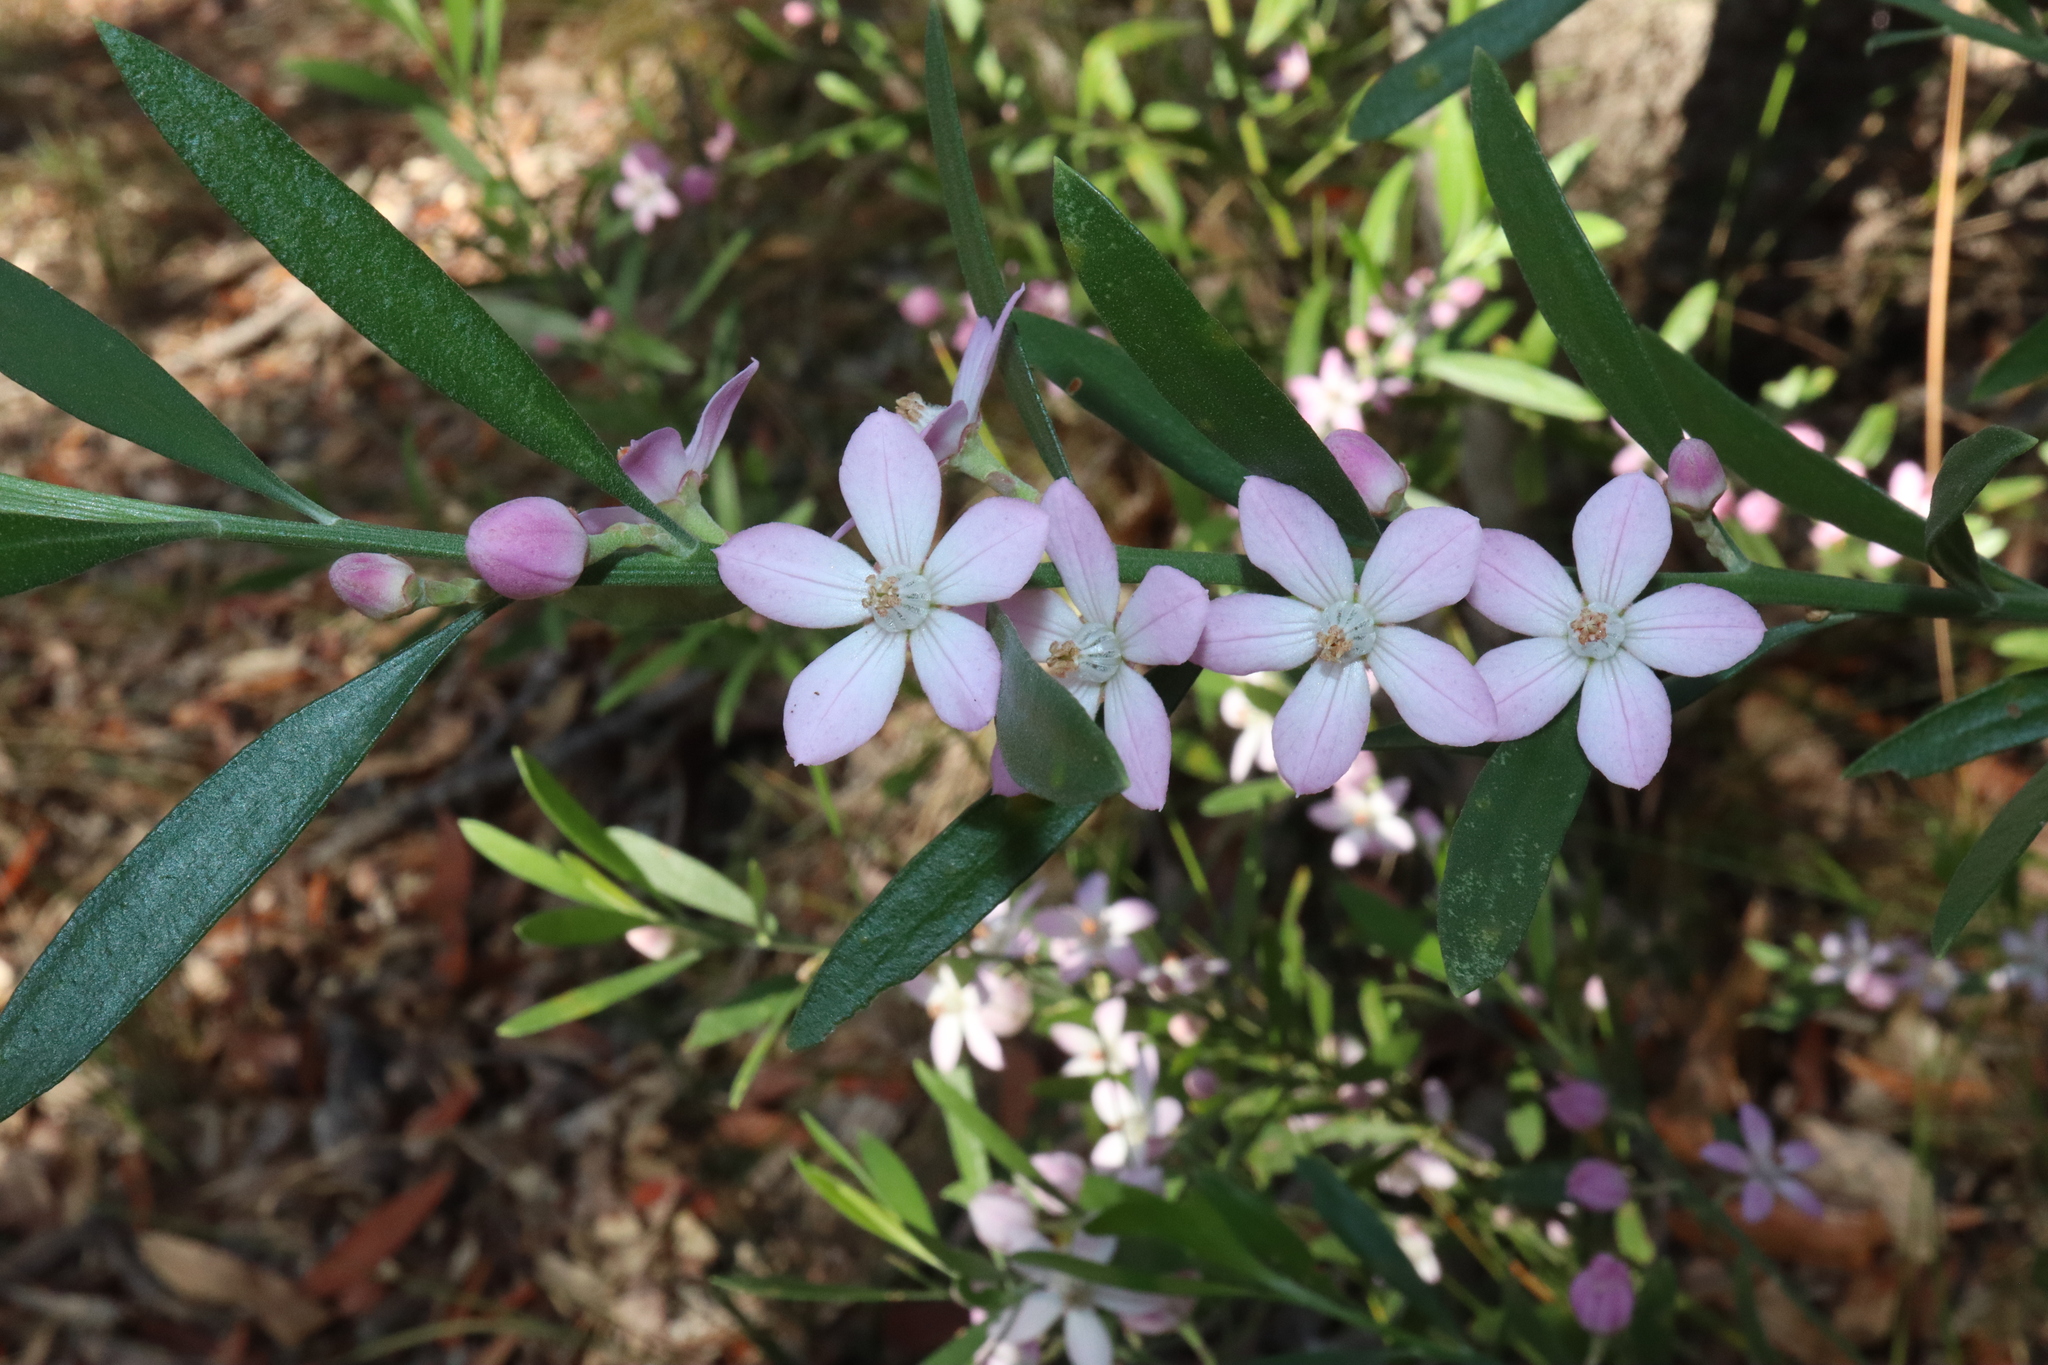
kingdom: Plantae
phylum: Tracheophyta
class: Magnoliopsida
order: Sapindales
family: Rutaceae
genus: Eriostemon
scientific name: Eriostemon australasius
